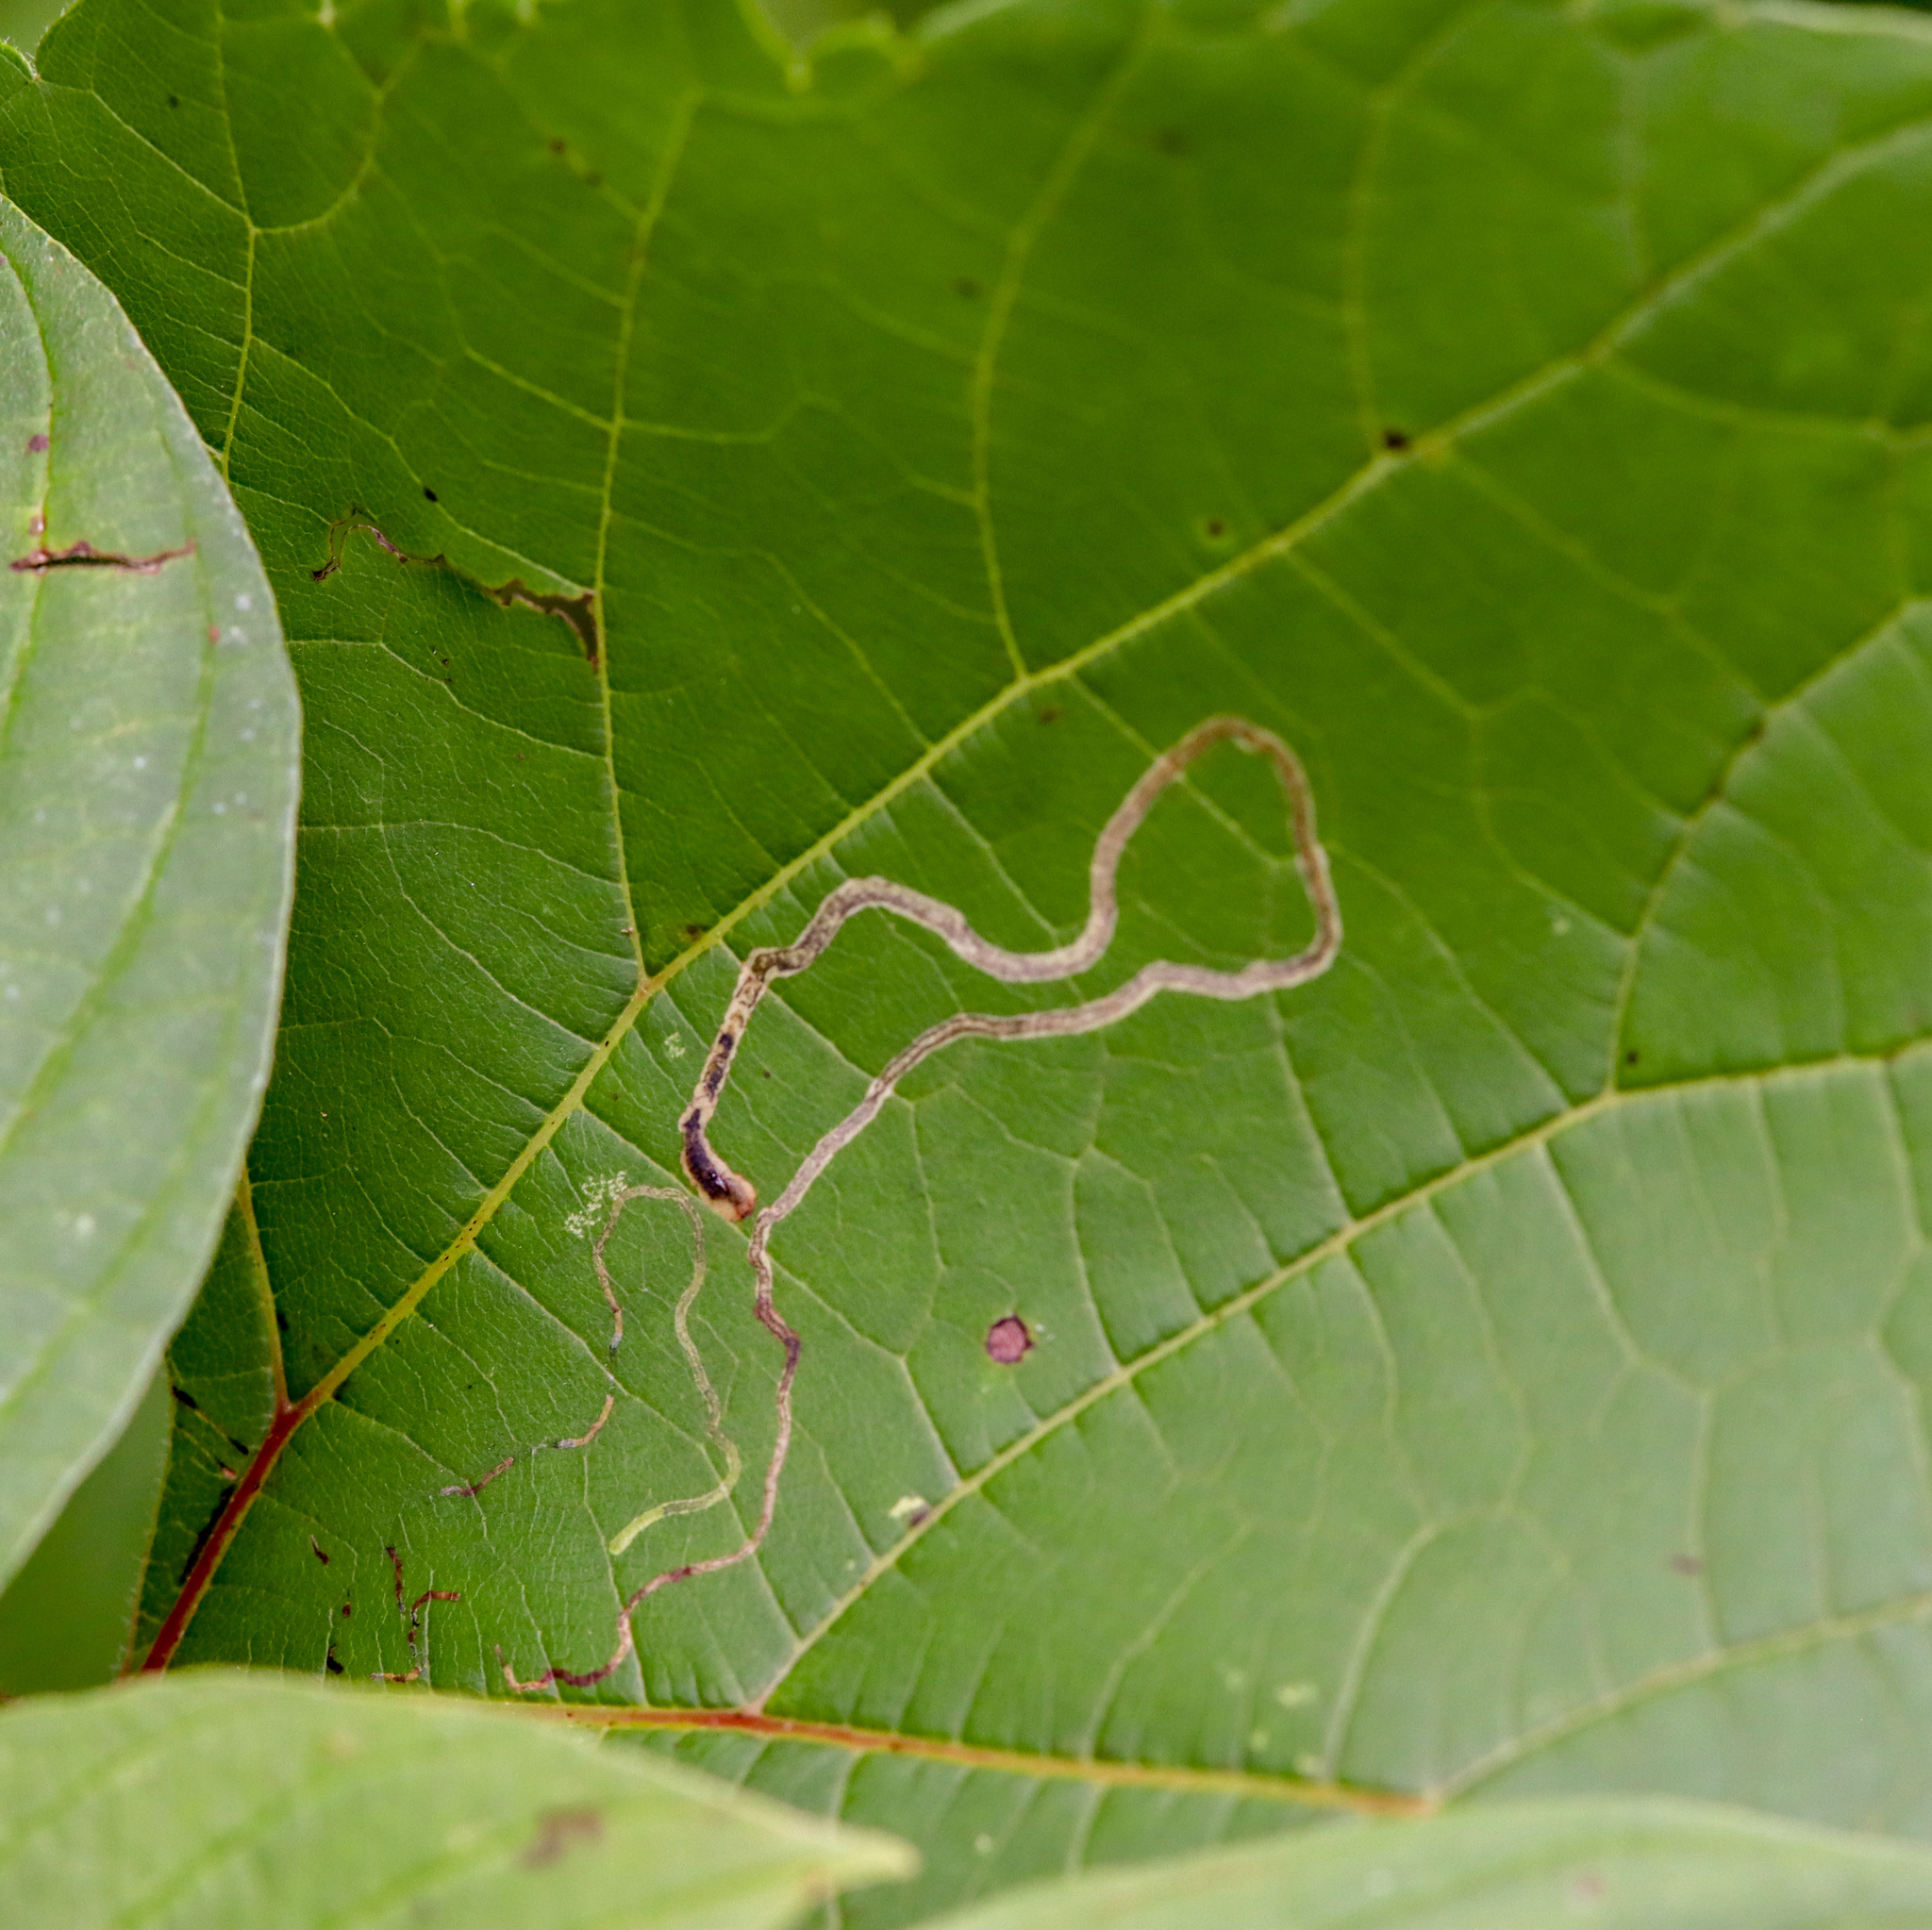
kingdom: Animalia
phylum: Arthropoda
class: Insecta
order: Lepidoptera
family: Gracillariidae
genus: Phyllocnistis
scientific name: Phyllocnistis vitifoliella
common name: Grape leaf-miner moth
